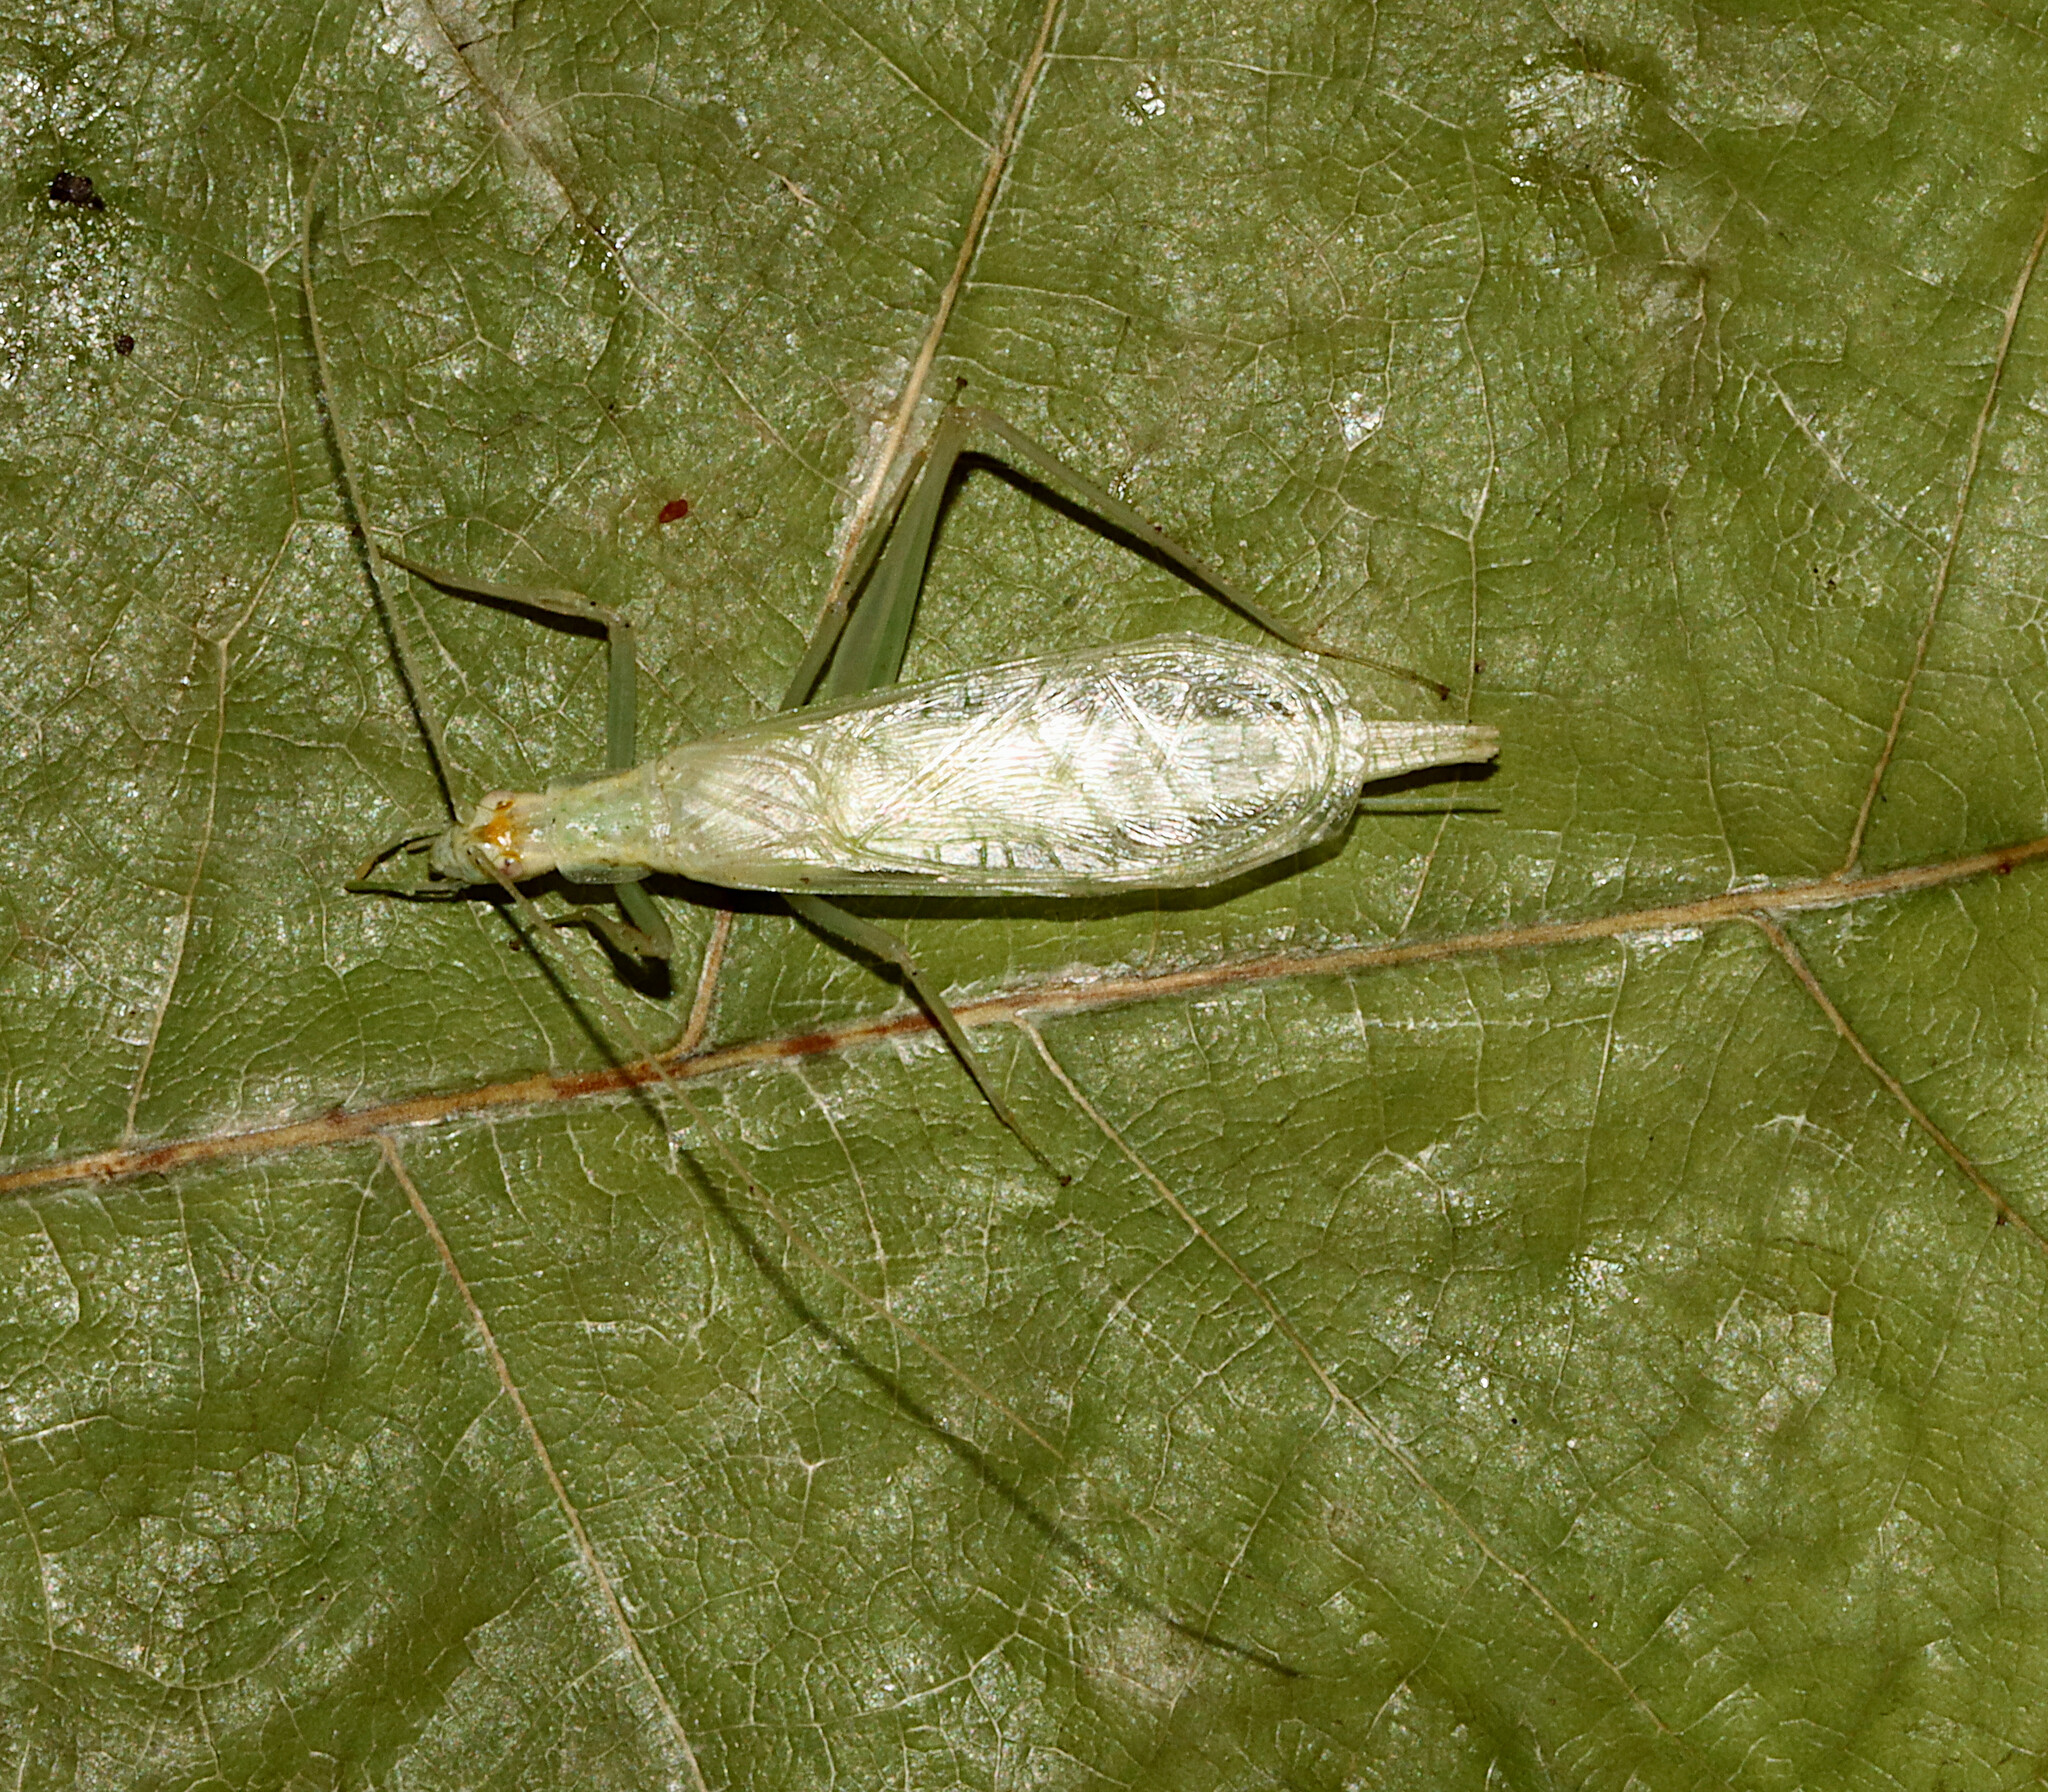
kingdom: Animalia
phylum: Arthropoda
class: Insecta
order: Orthoptera
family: Gryllidae
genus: Oecanthus
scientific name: Oecanthus exclamationis
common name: Davis's tree cricket
